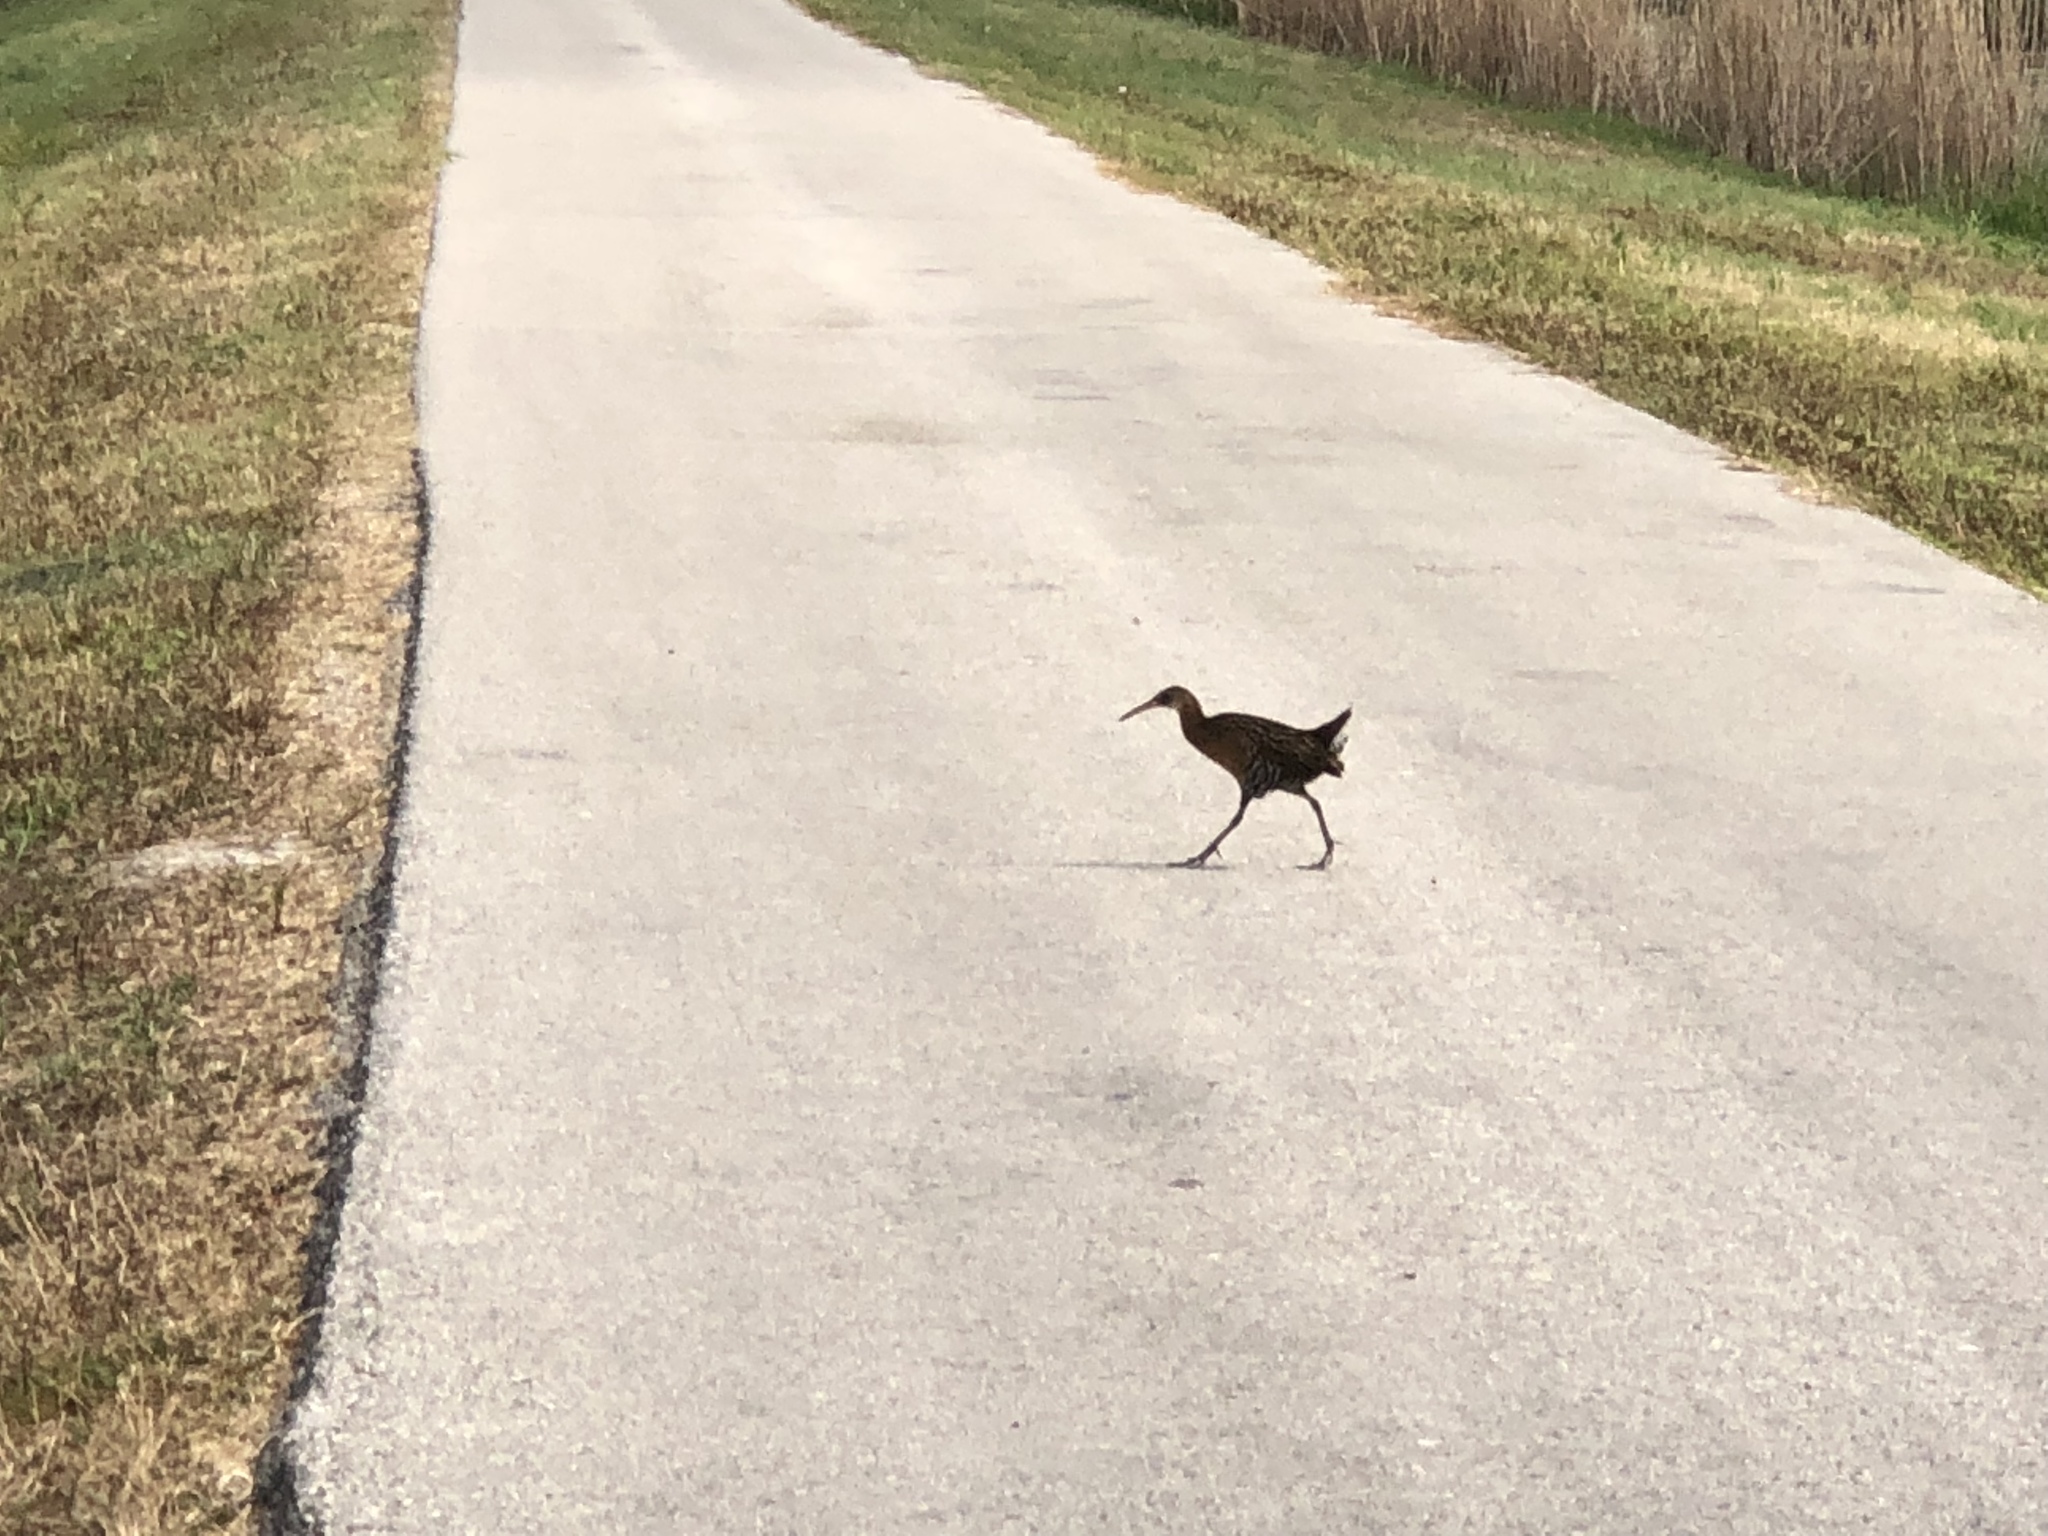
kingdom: Animalia
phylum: Chordata
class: Aves
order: Gruiformes
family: Rallidae
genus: Rallus
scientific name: Rallus
